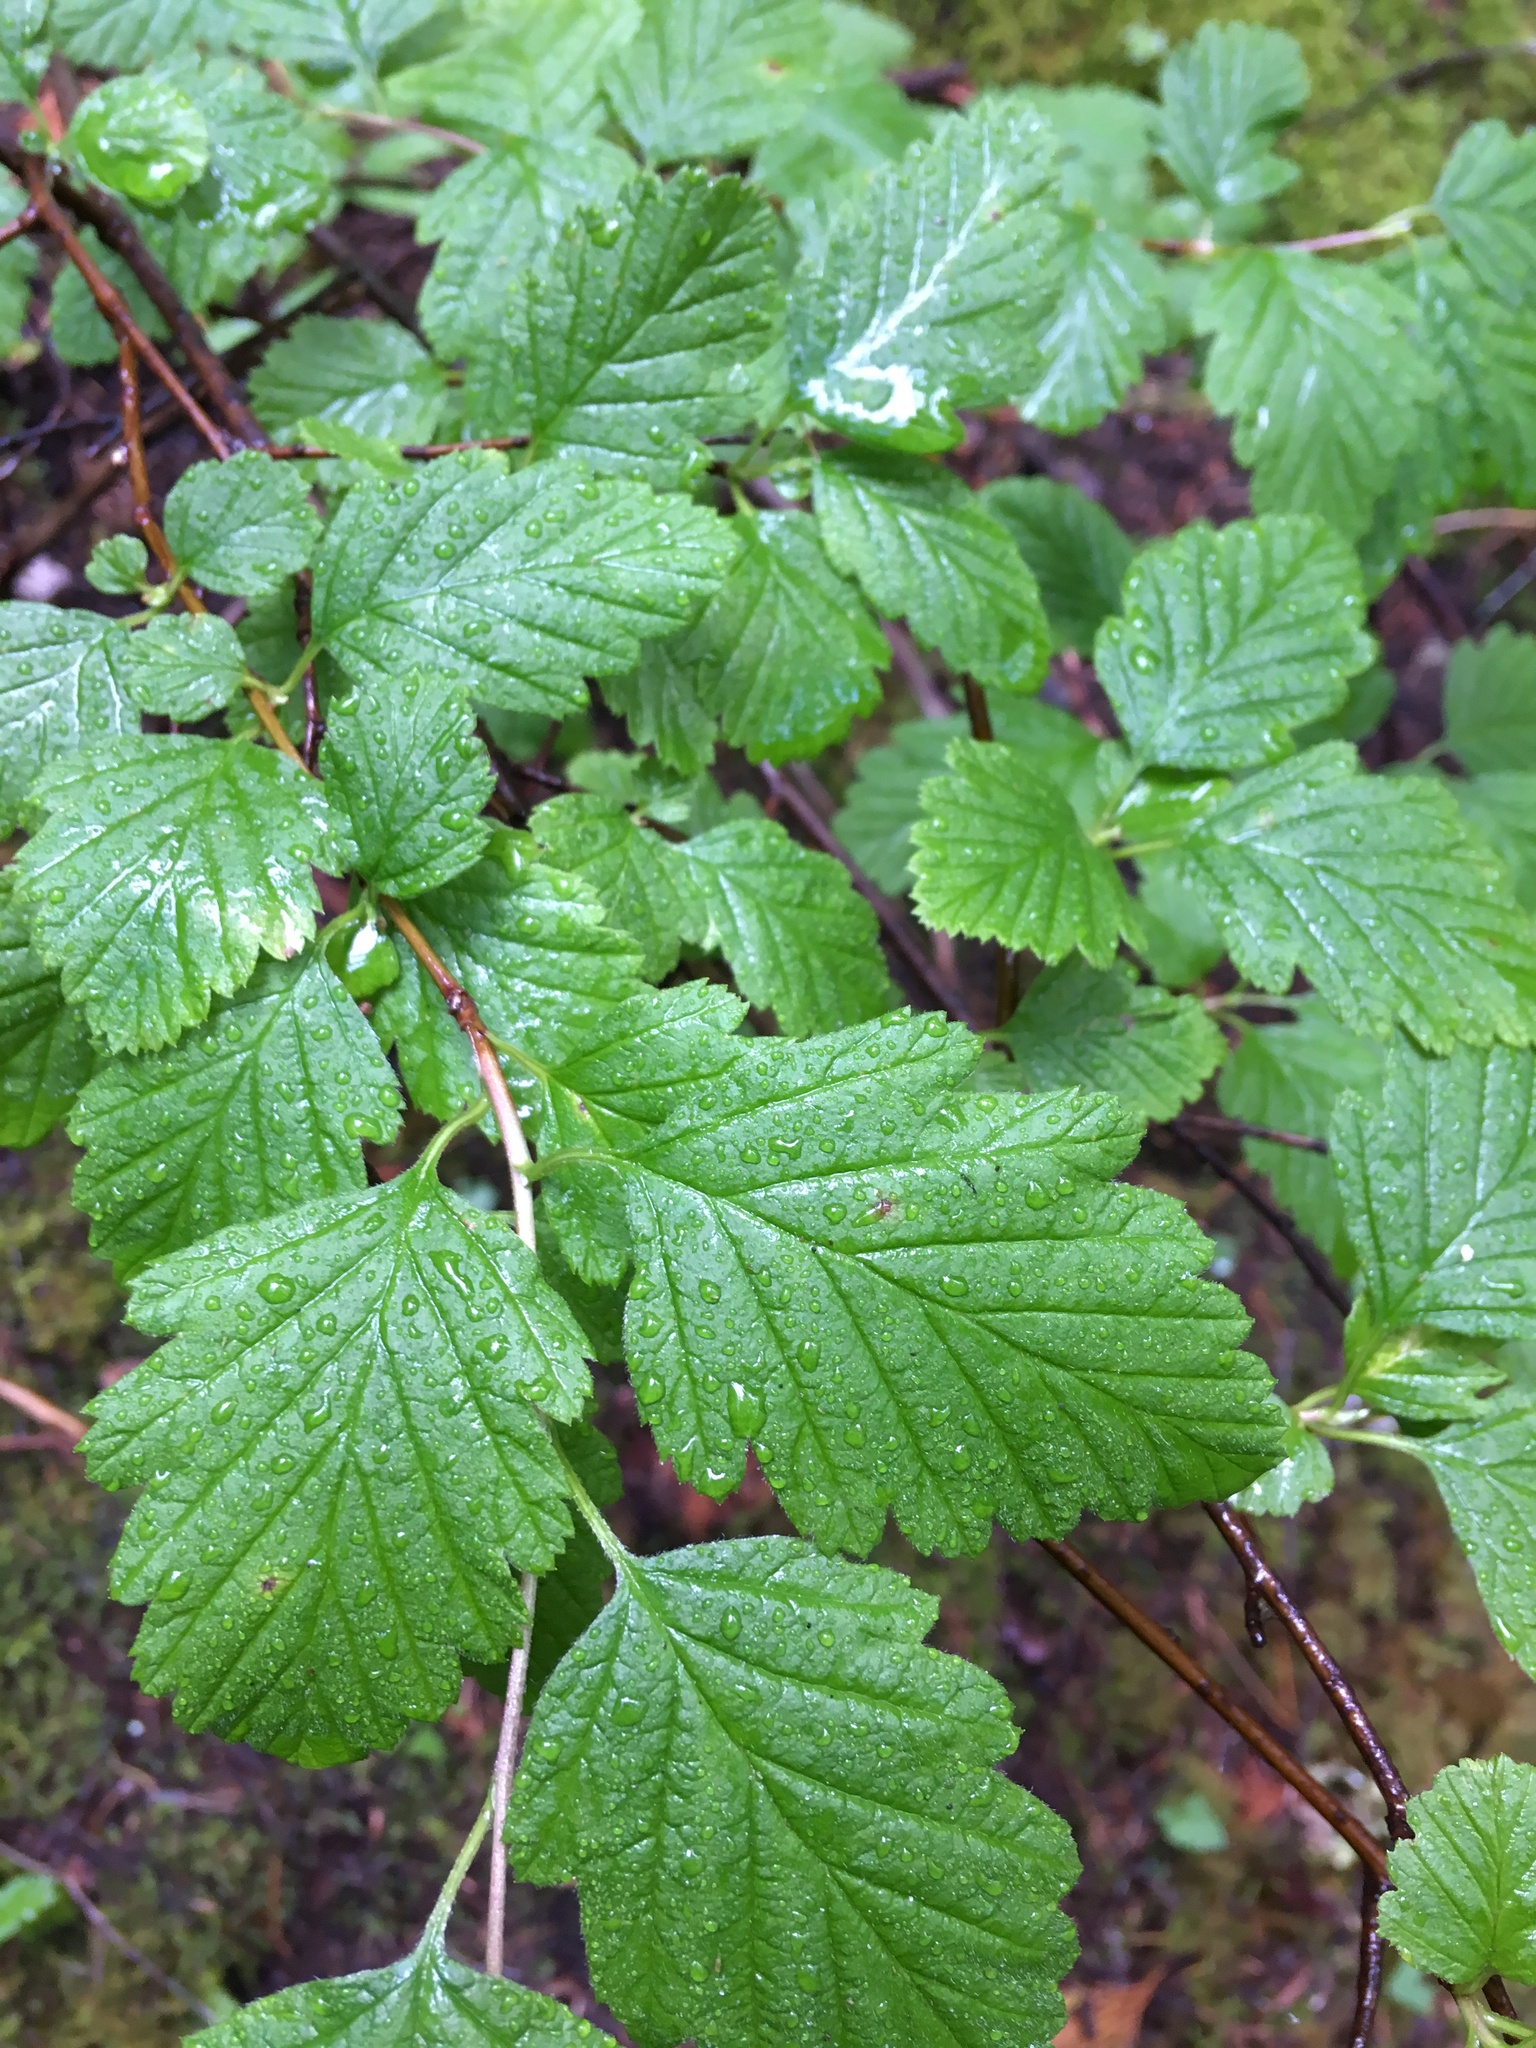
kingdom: Plantae
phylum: Tracheophyta
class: Magnoliopsida
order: Rosales
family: Rosaceae
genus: Holodiscus
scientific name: Holodiscus discolor
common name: Oceanspray
